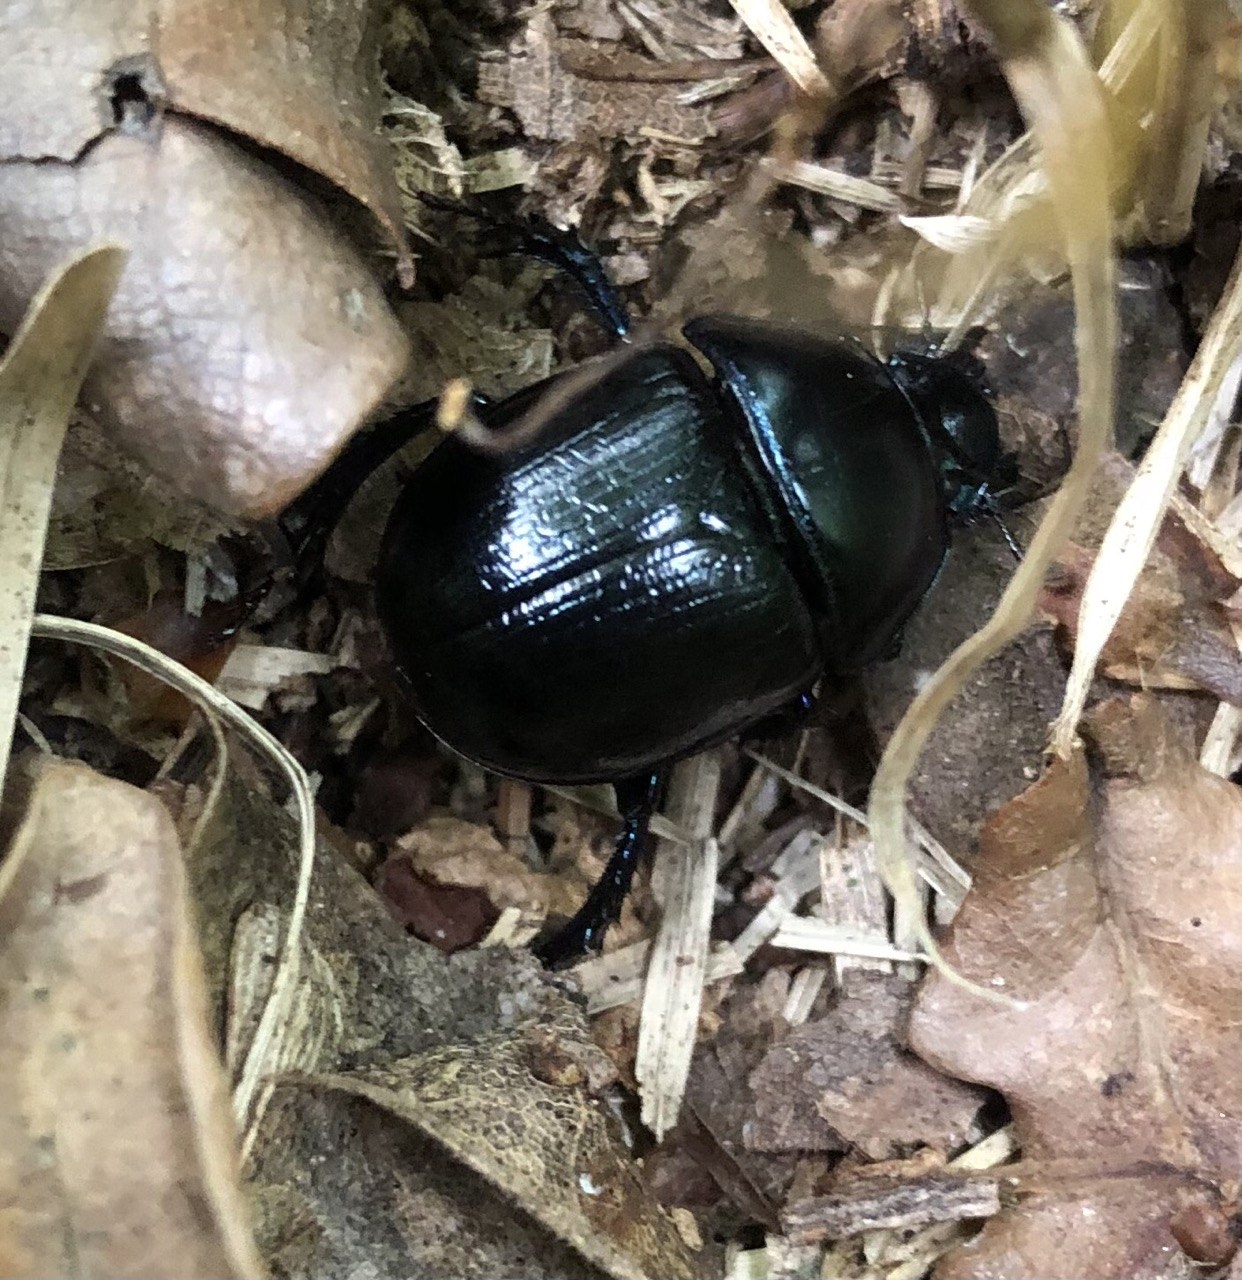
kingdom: Animalia
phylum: Arthropoda
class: Insecta
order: Coleoptera
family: Geotrupidae
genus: Anoplotrupes
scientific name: Anoplotrupes stercorosus
